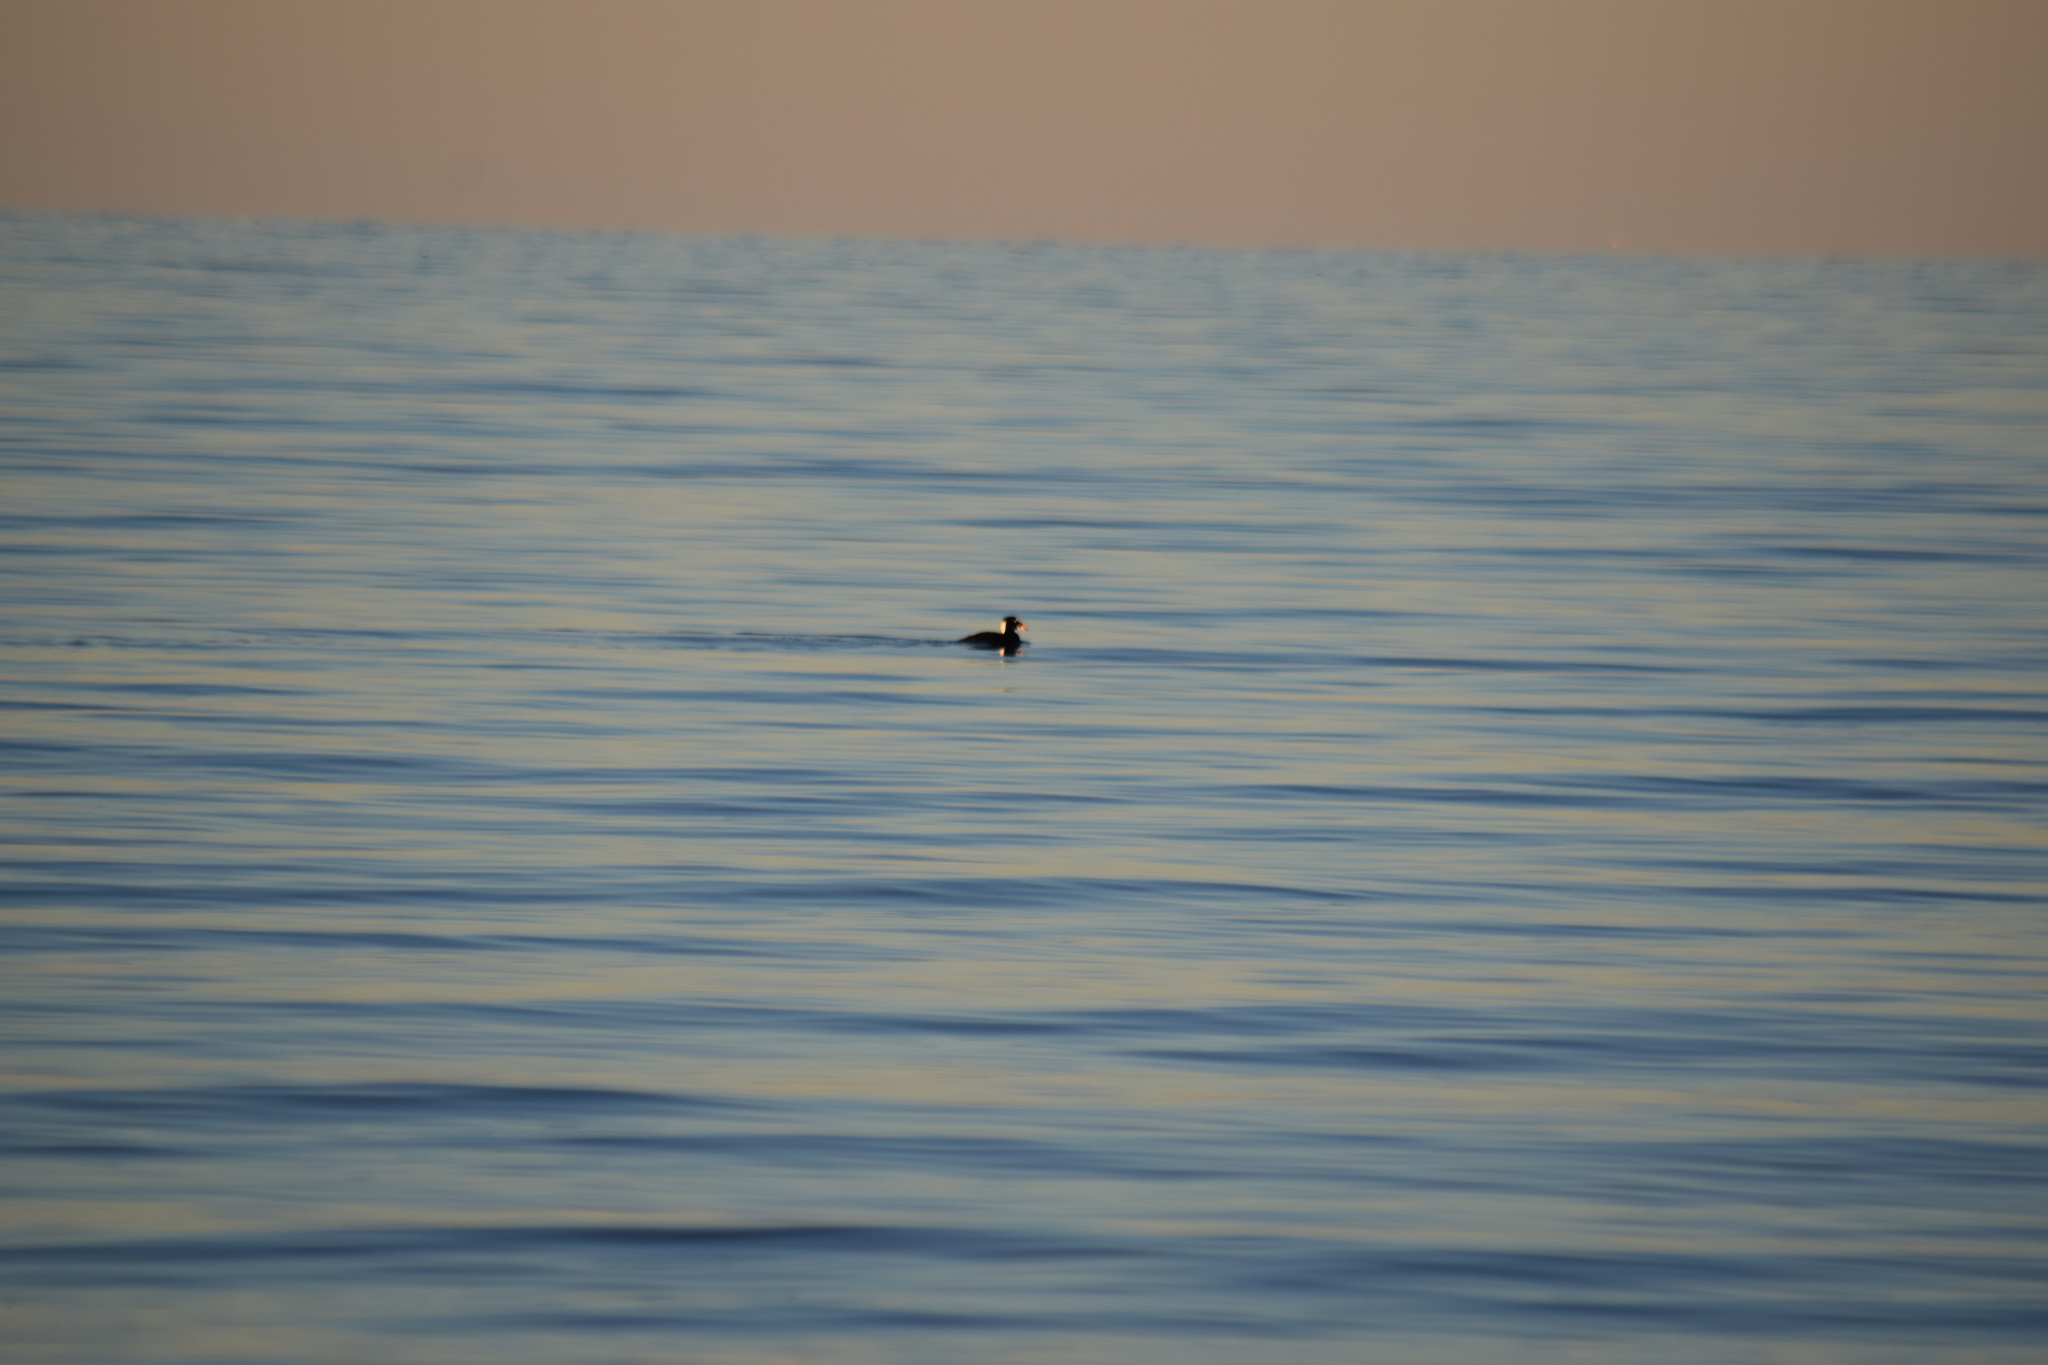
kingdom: Animalia
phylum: Chordata
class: Aves
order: Anseriformes
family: Anatidae
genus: Melanitta
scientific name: Melanitta perspicillata
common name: Surf scoter
